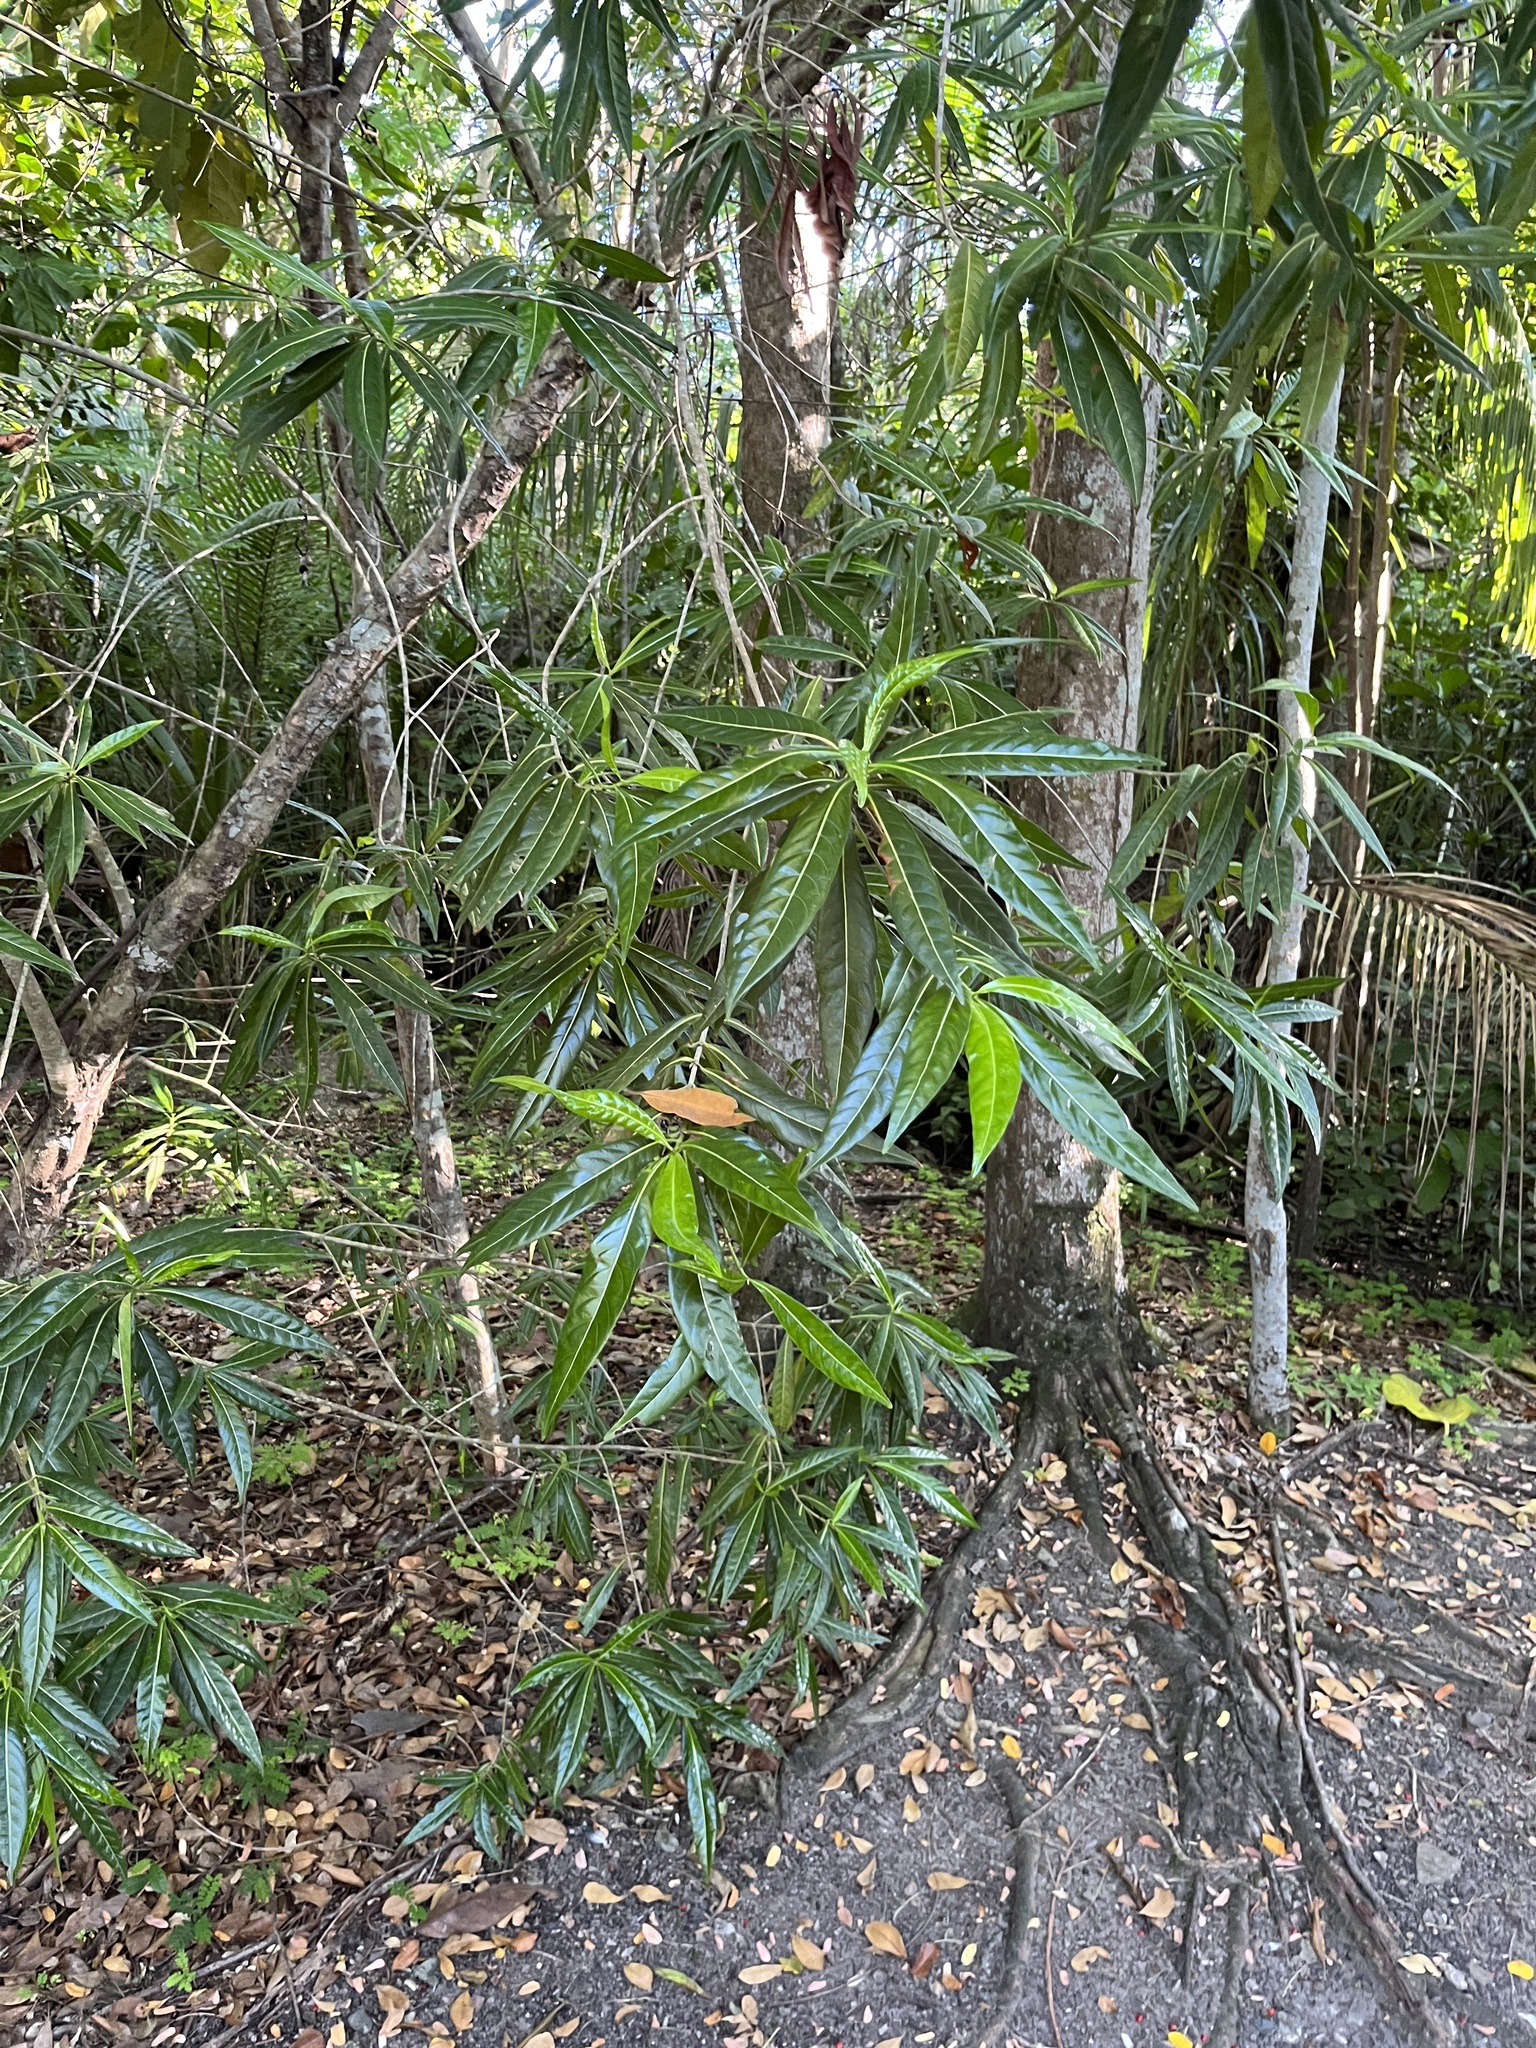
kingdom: Plantae
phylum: Tracheophyta
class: Magnoliopsida
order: Gentianales
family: Rubiaceae
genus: Stenostomum
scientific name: Stenostomum resinosum
